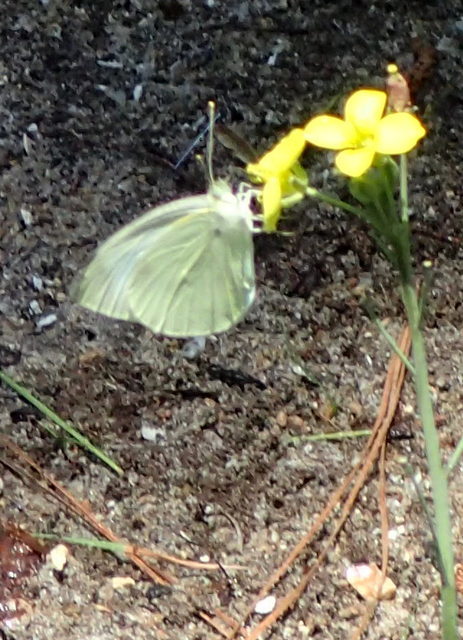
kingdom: Animalia
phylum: Arthropoda
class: Insecta
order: Lepidoptera
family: Pieridae
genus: Pieris
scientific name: Pieris rapae
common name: Small white
